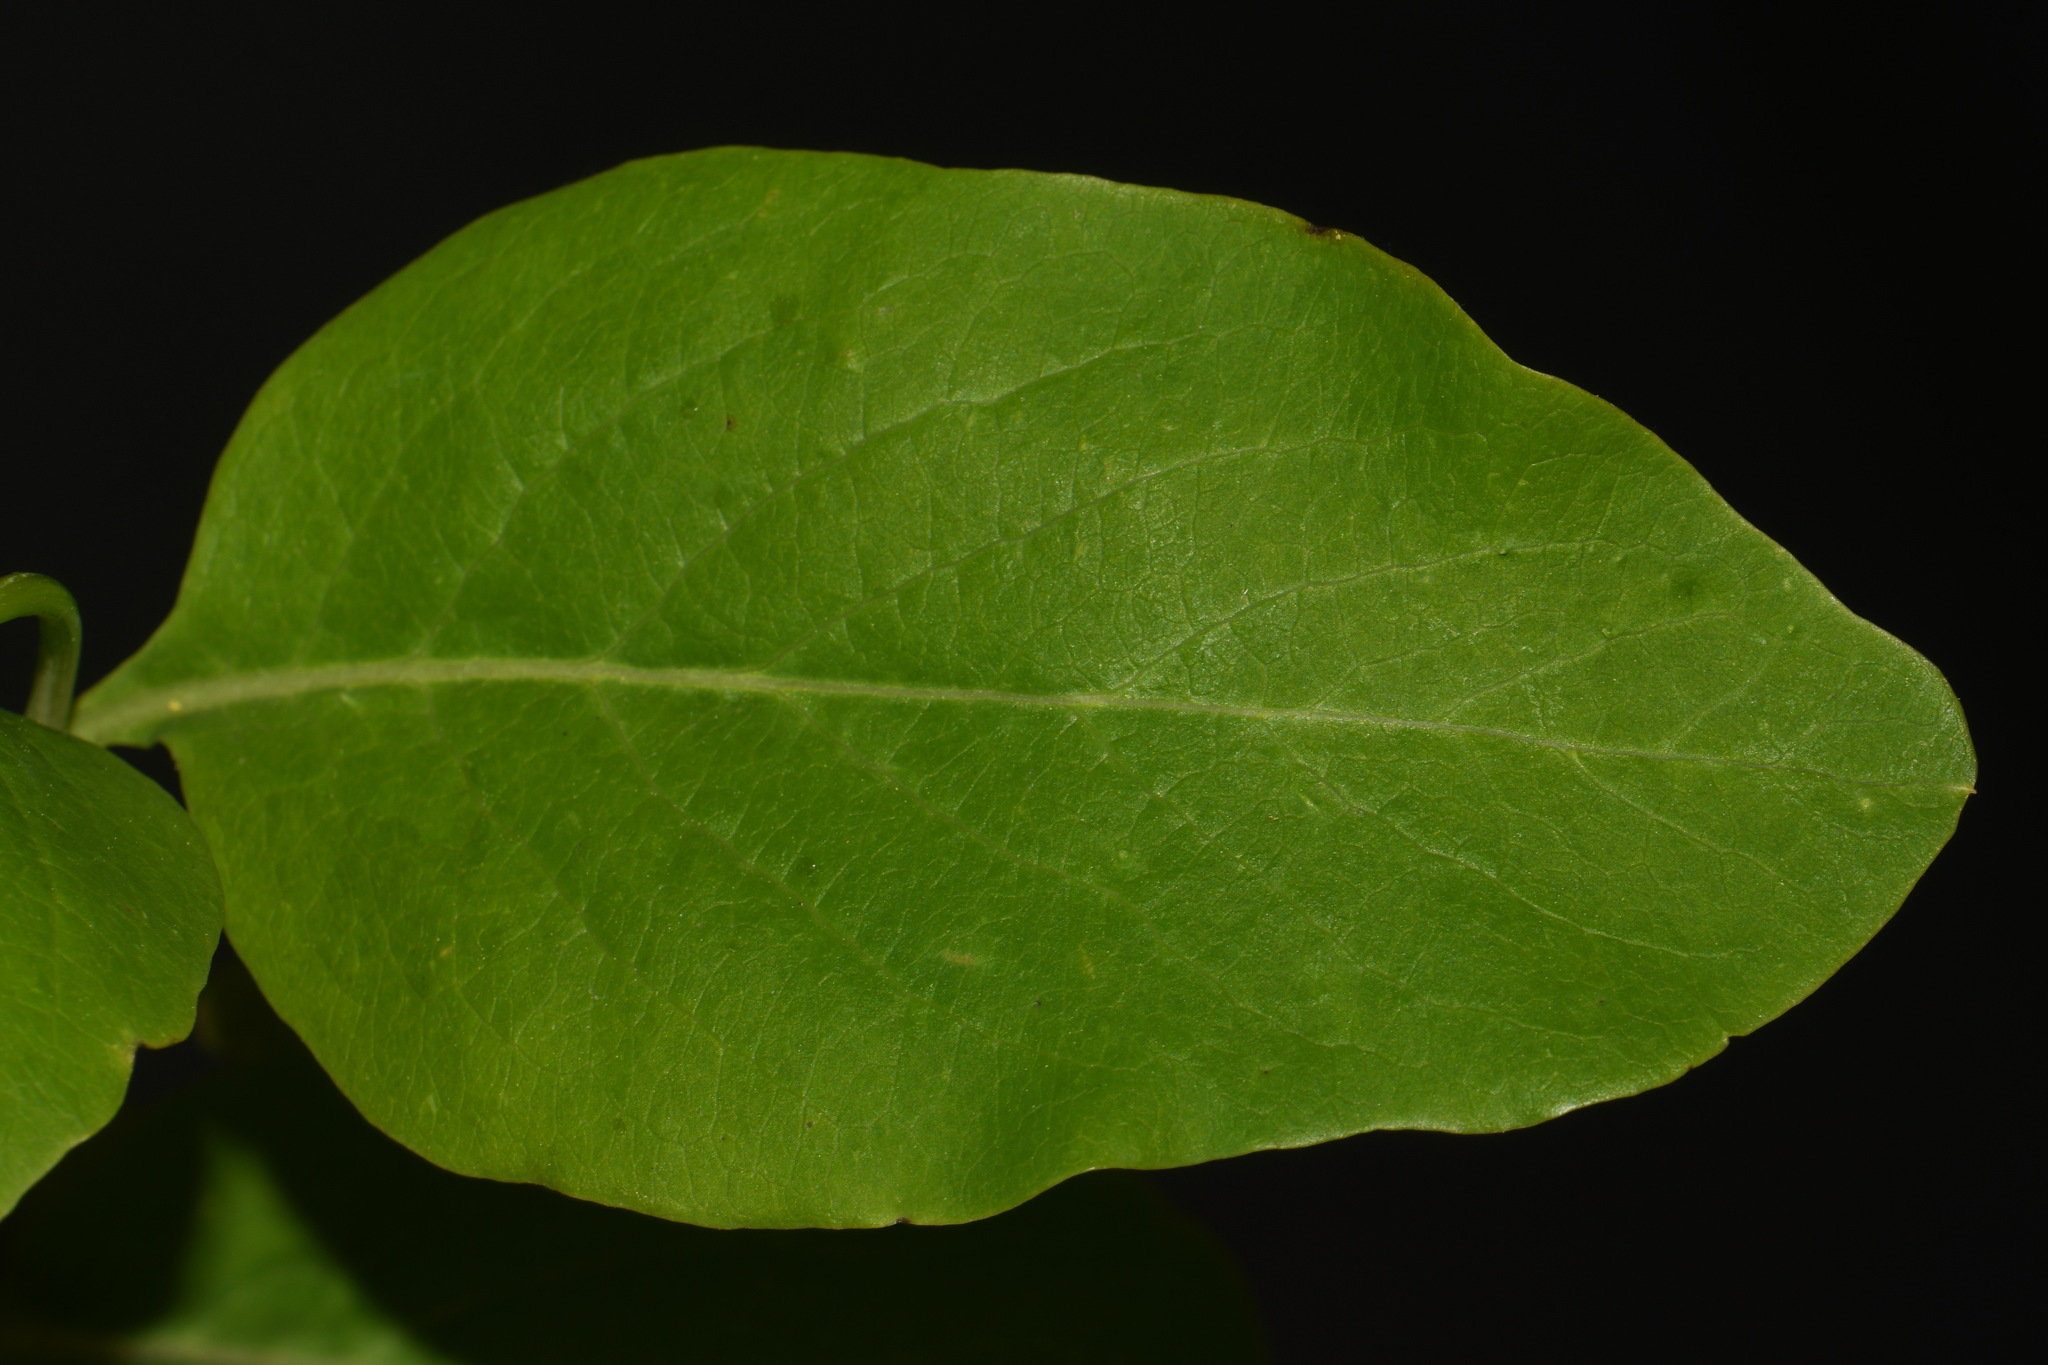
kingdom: Plantae
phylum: Tracheophyta
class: Magnoliopsida
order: Dipsacales
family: Caprifoliaceae
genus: Lonicera
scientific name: Lonicera dioica
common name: Limber honeysuckle
